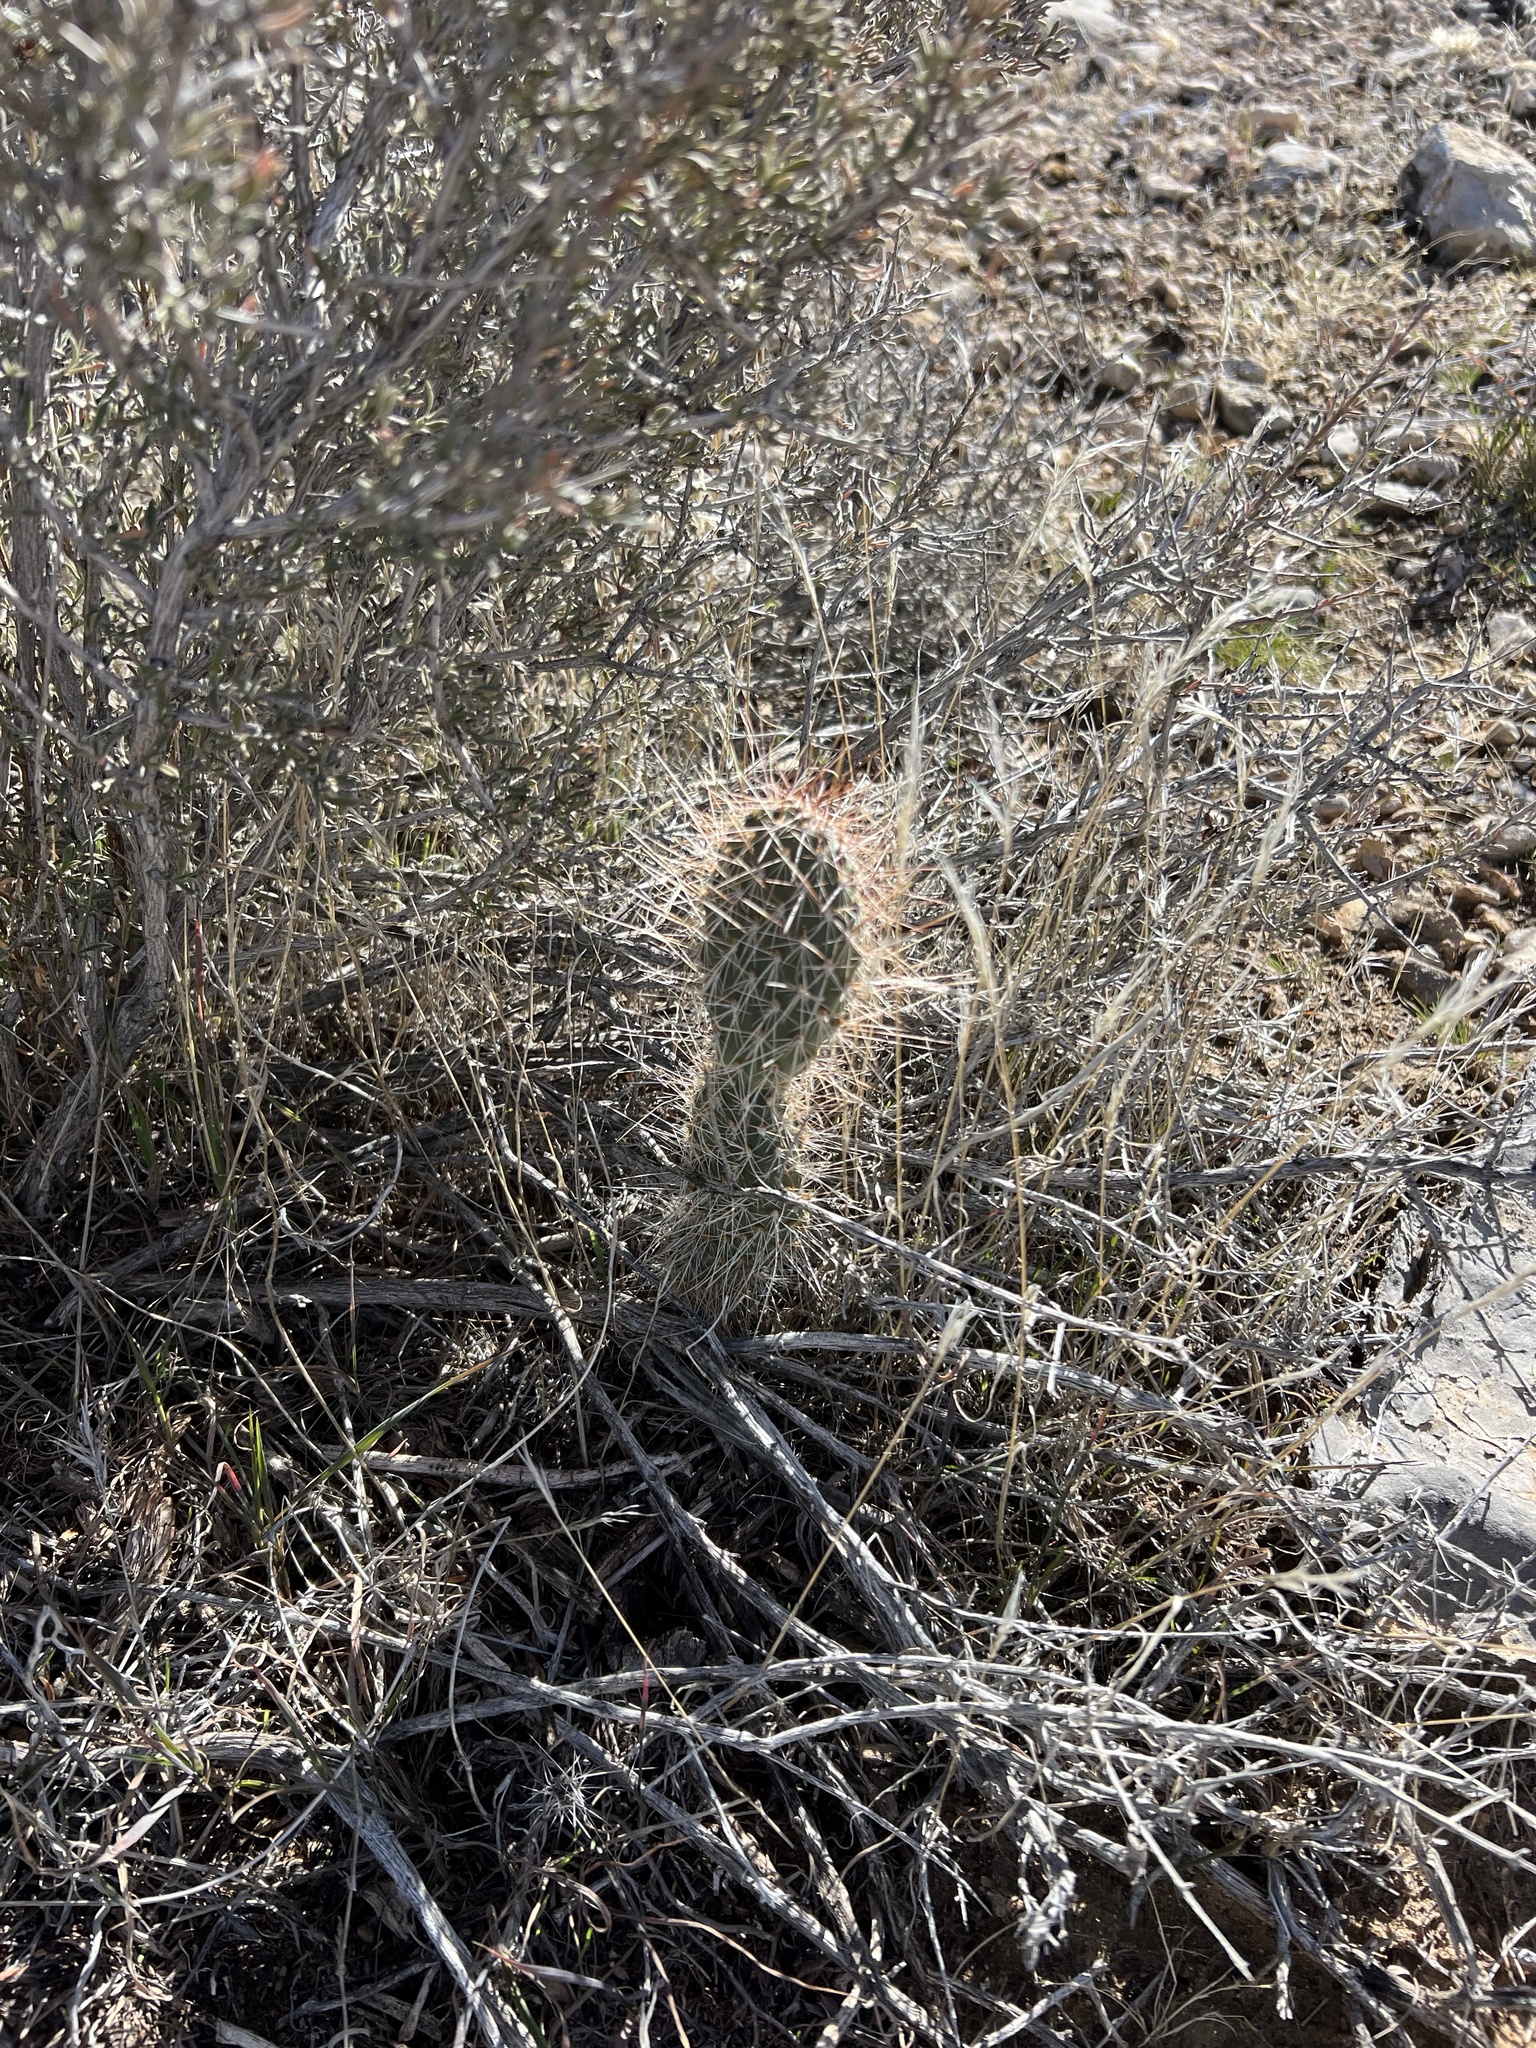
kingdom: Plantae
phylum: Tracheophyta
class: Magnoliopsida
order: Caryophyllales
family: Cactaceae
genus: Opuntia
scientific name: Opuntia polyacantha
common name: Plains prickly-pear
